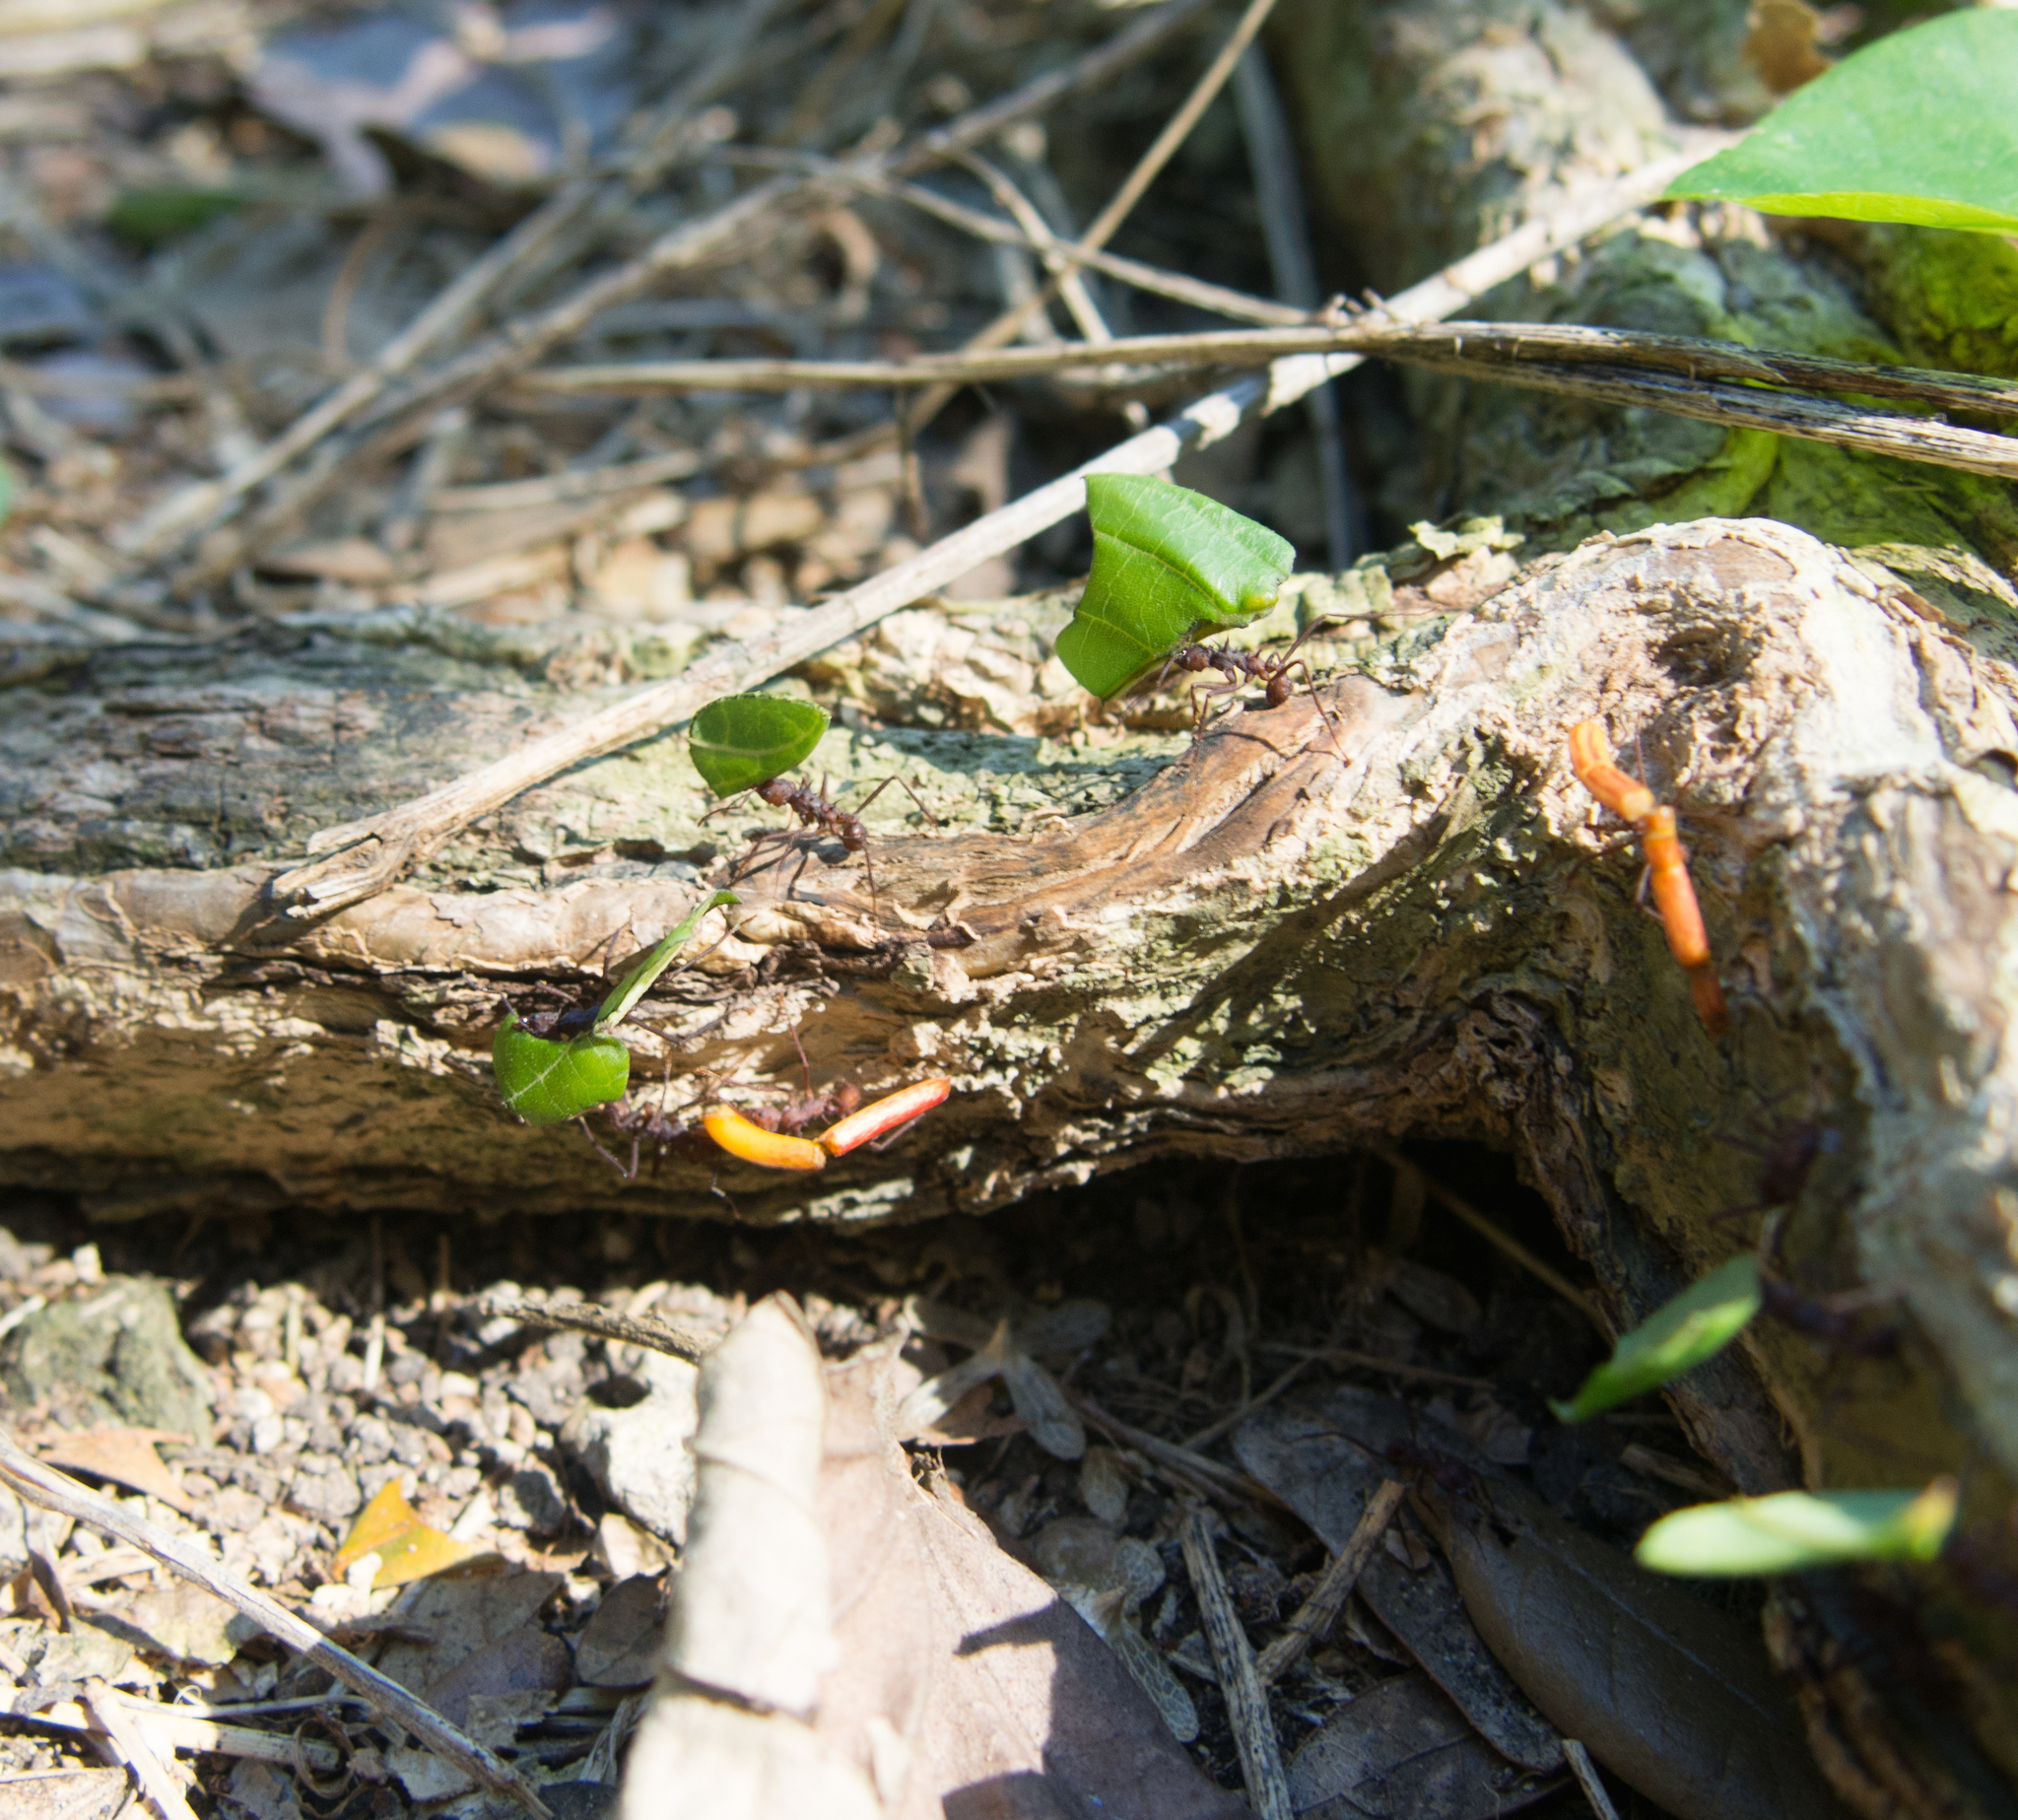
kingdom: Animalia
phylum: Arthropoda
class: Insecta
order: Hymenoptera
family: Formicidae
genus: Acromyrmex
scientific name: Acromyrmex octospinosus
